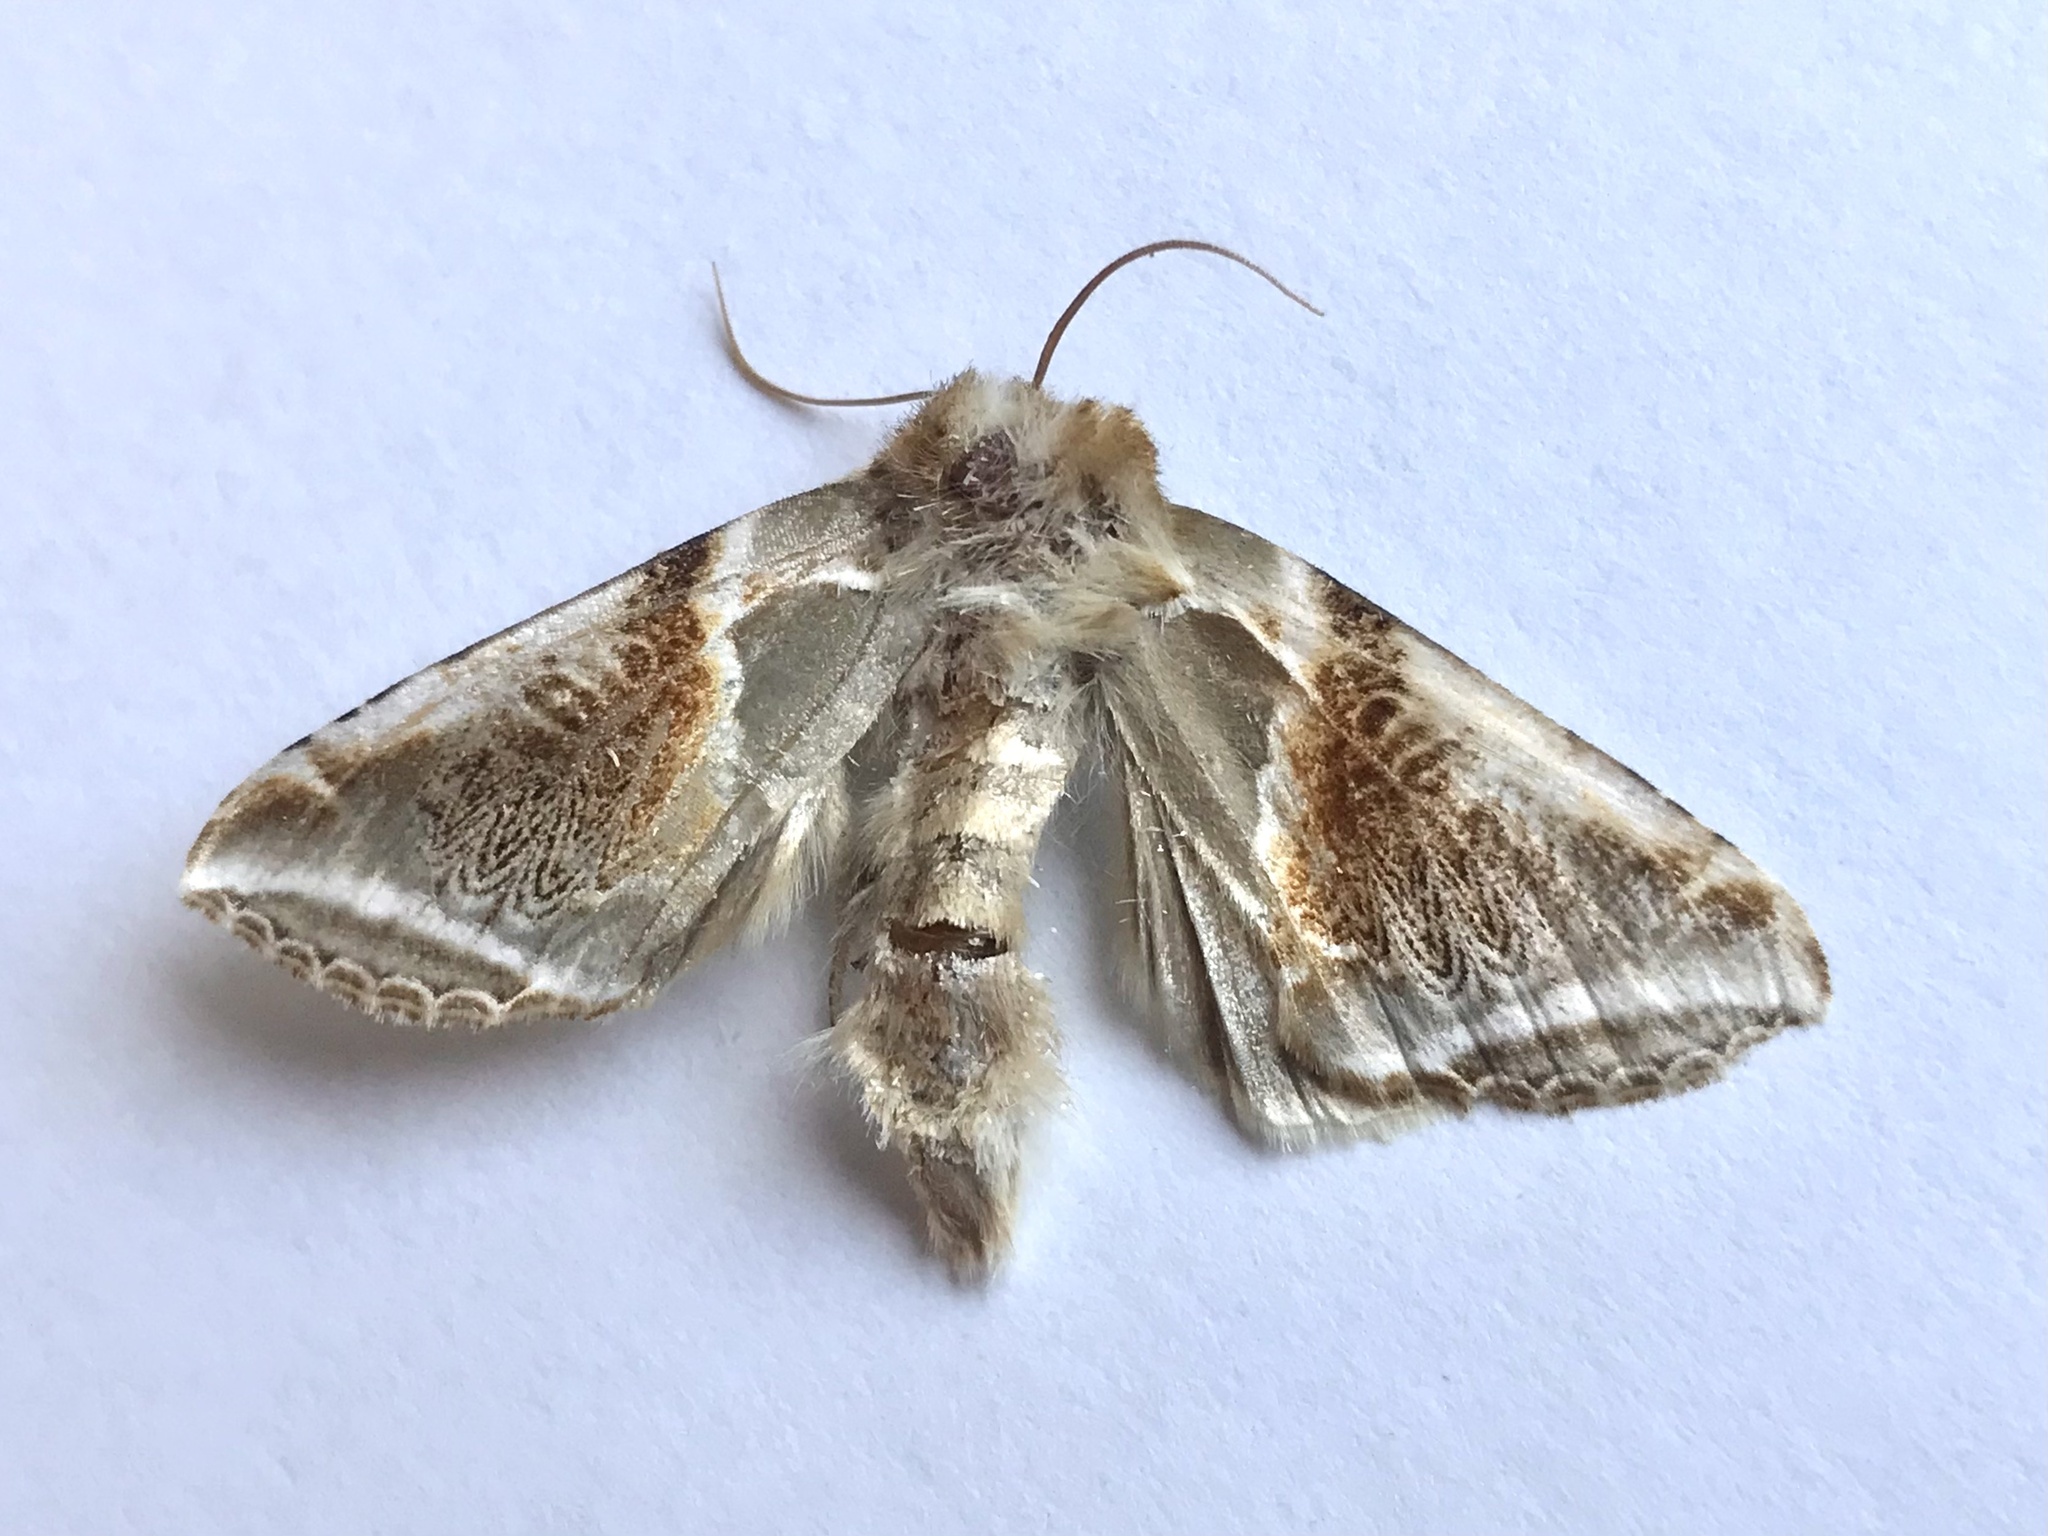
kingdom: Animalia
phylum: Arthropoda
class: Insecta
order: Lepidoptera
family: Drepanidae
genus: Habrosyne
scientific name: Habrosyne pyritoides
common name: Buff arches
